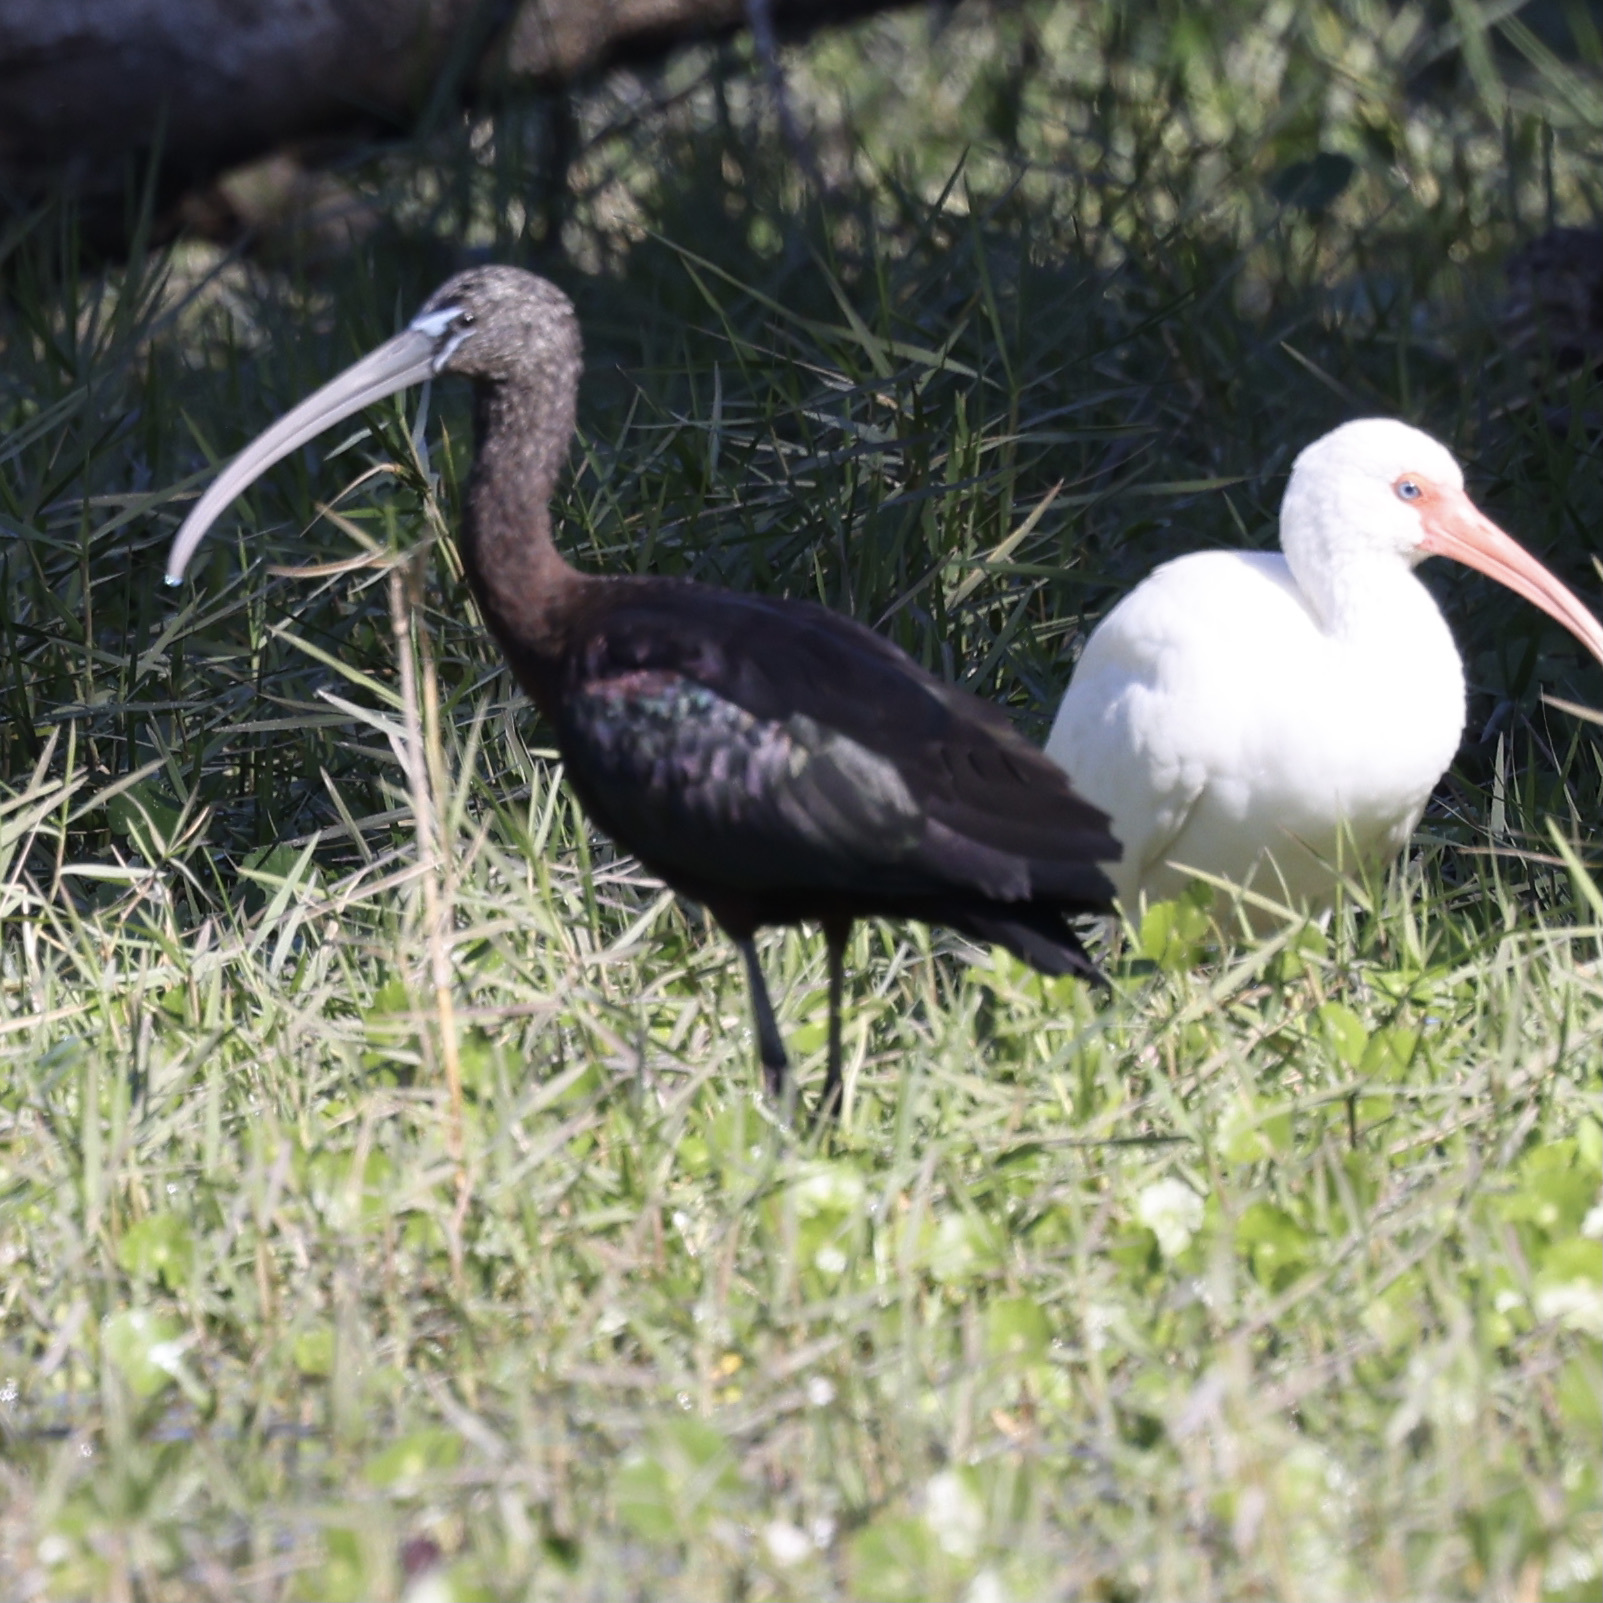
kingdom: Animalia
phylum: Chordata
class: Aves
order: Pelecaniformes
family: Threskiornithidae
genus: Plegadis
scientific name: Plegadis falcinellus
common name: Glossy ibis
